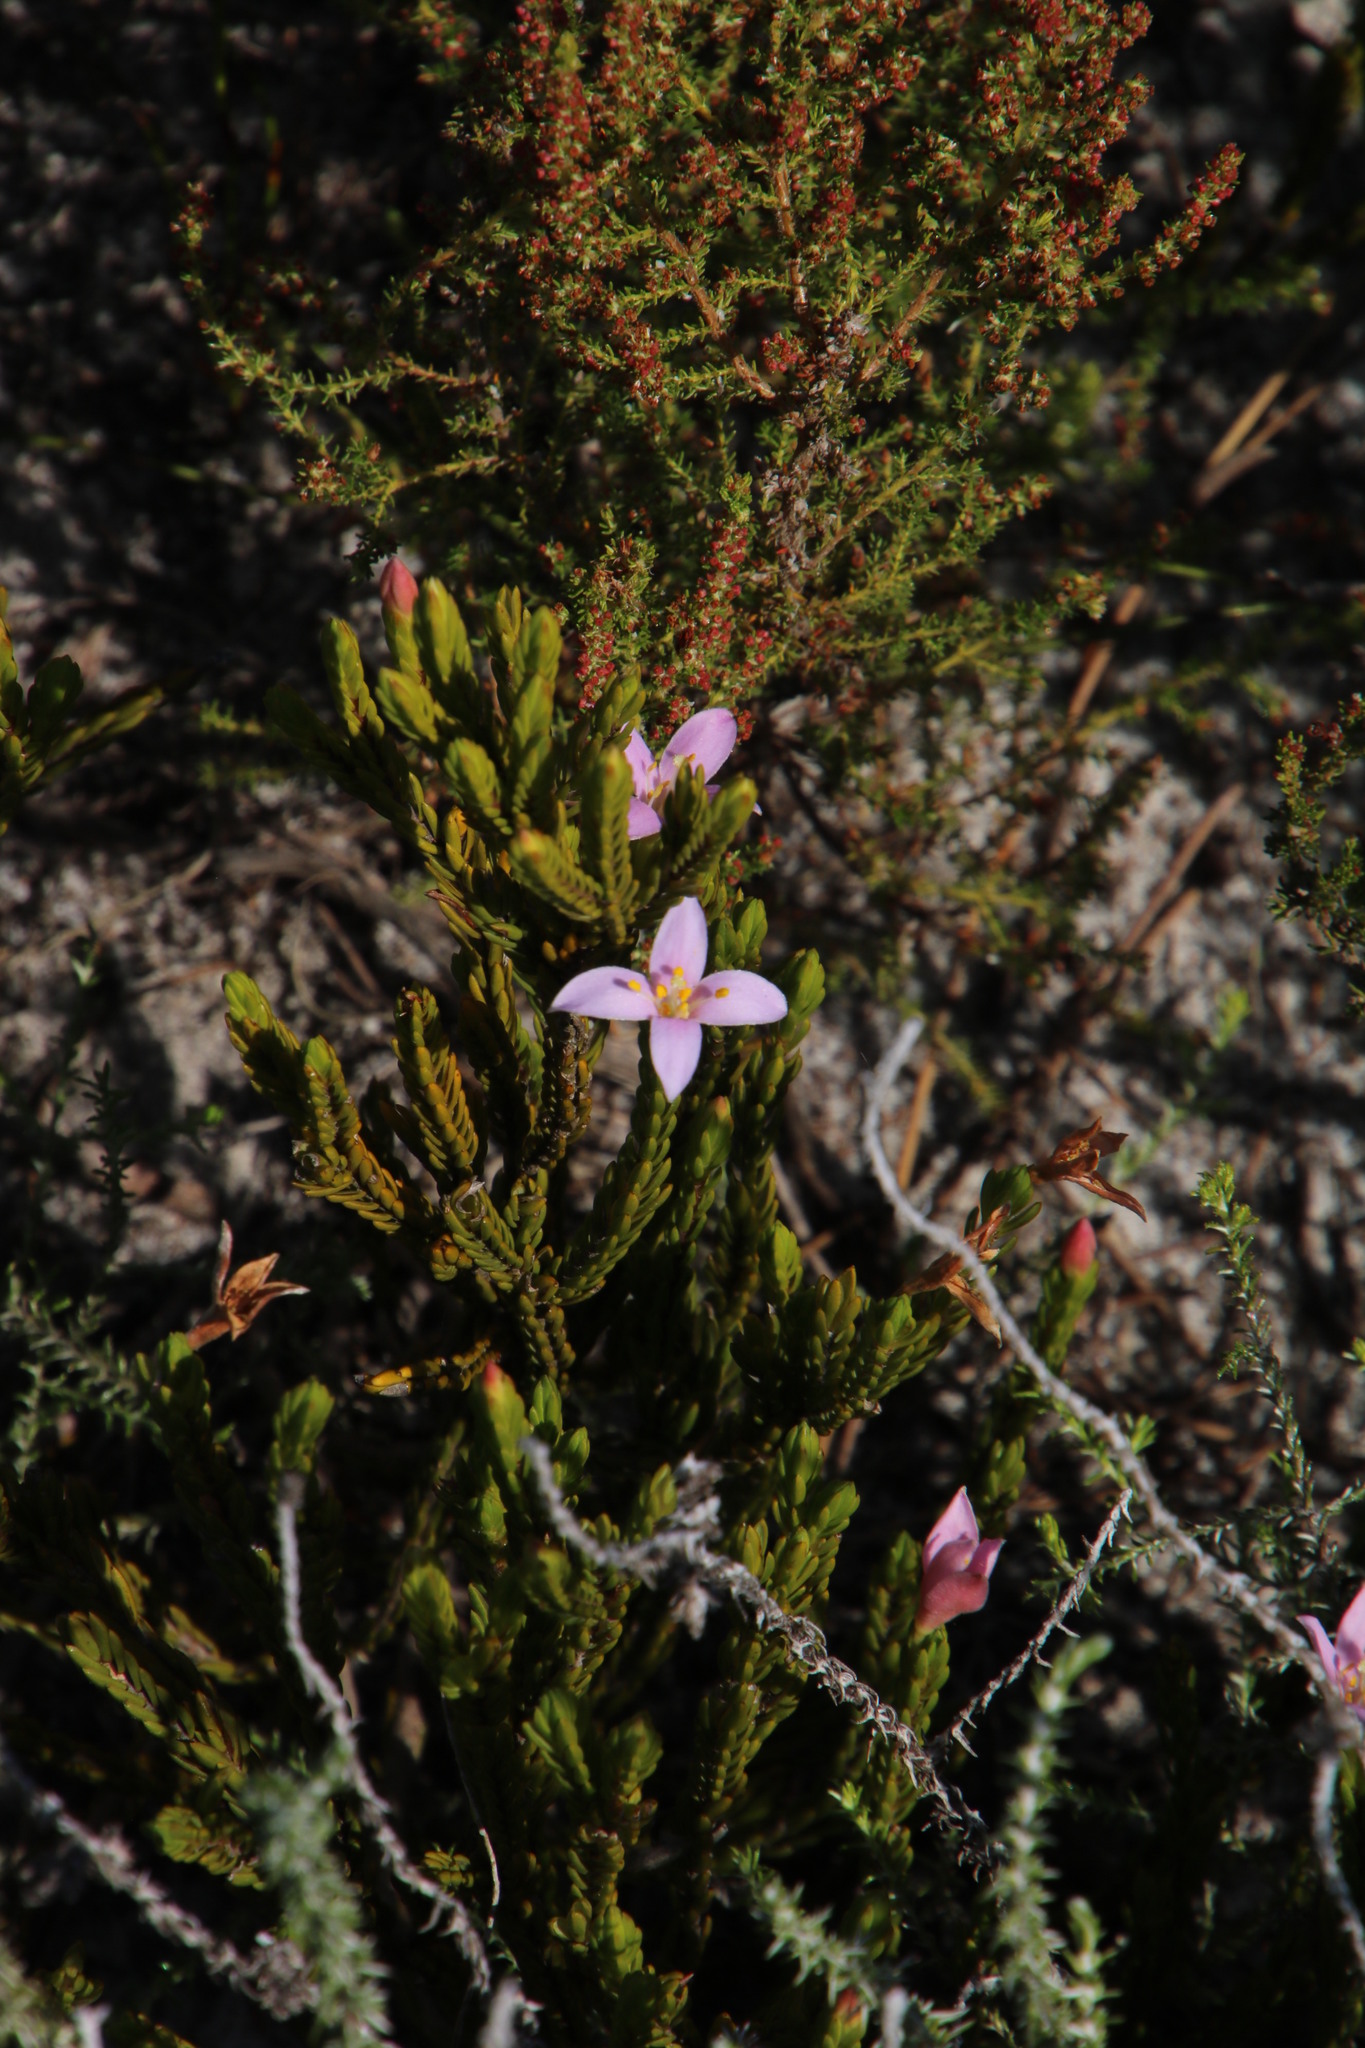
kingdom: Plantae
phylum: Tracheophyta
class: Magnoliopsida
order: Malvales
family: Thymelaeaceae
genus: Lachnaea
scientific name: Lachnaea grandiflora
